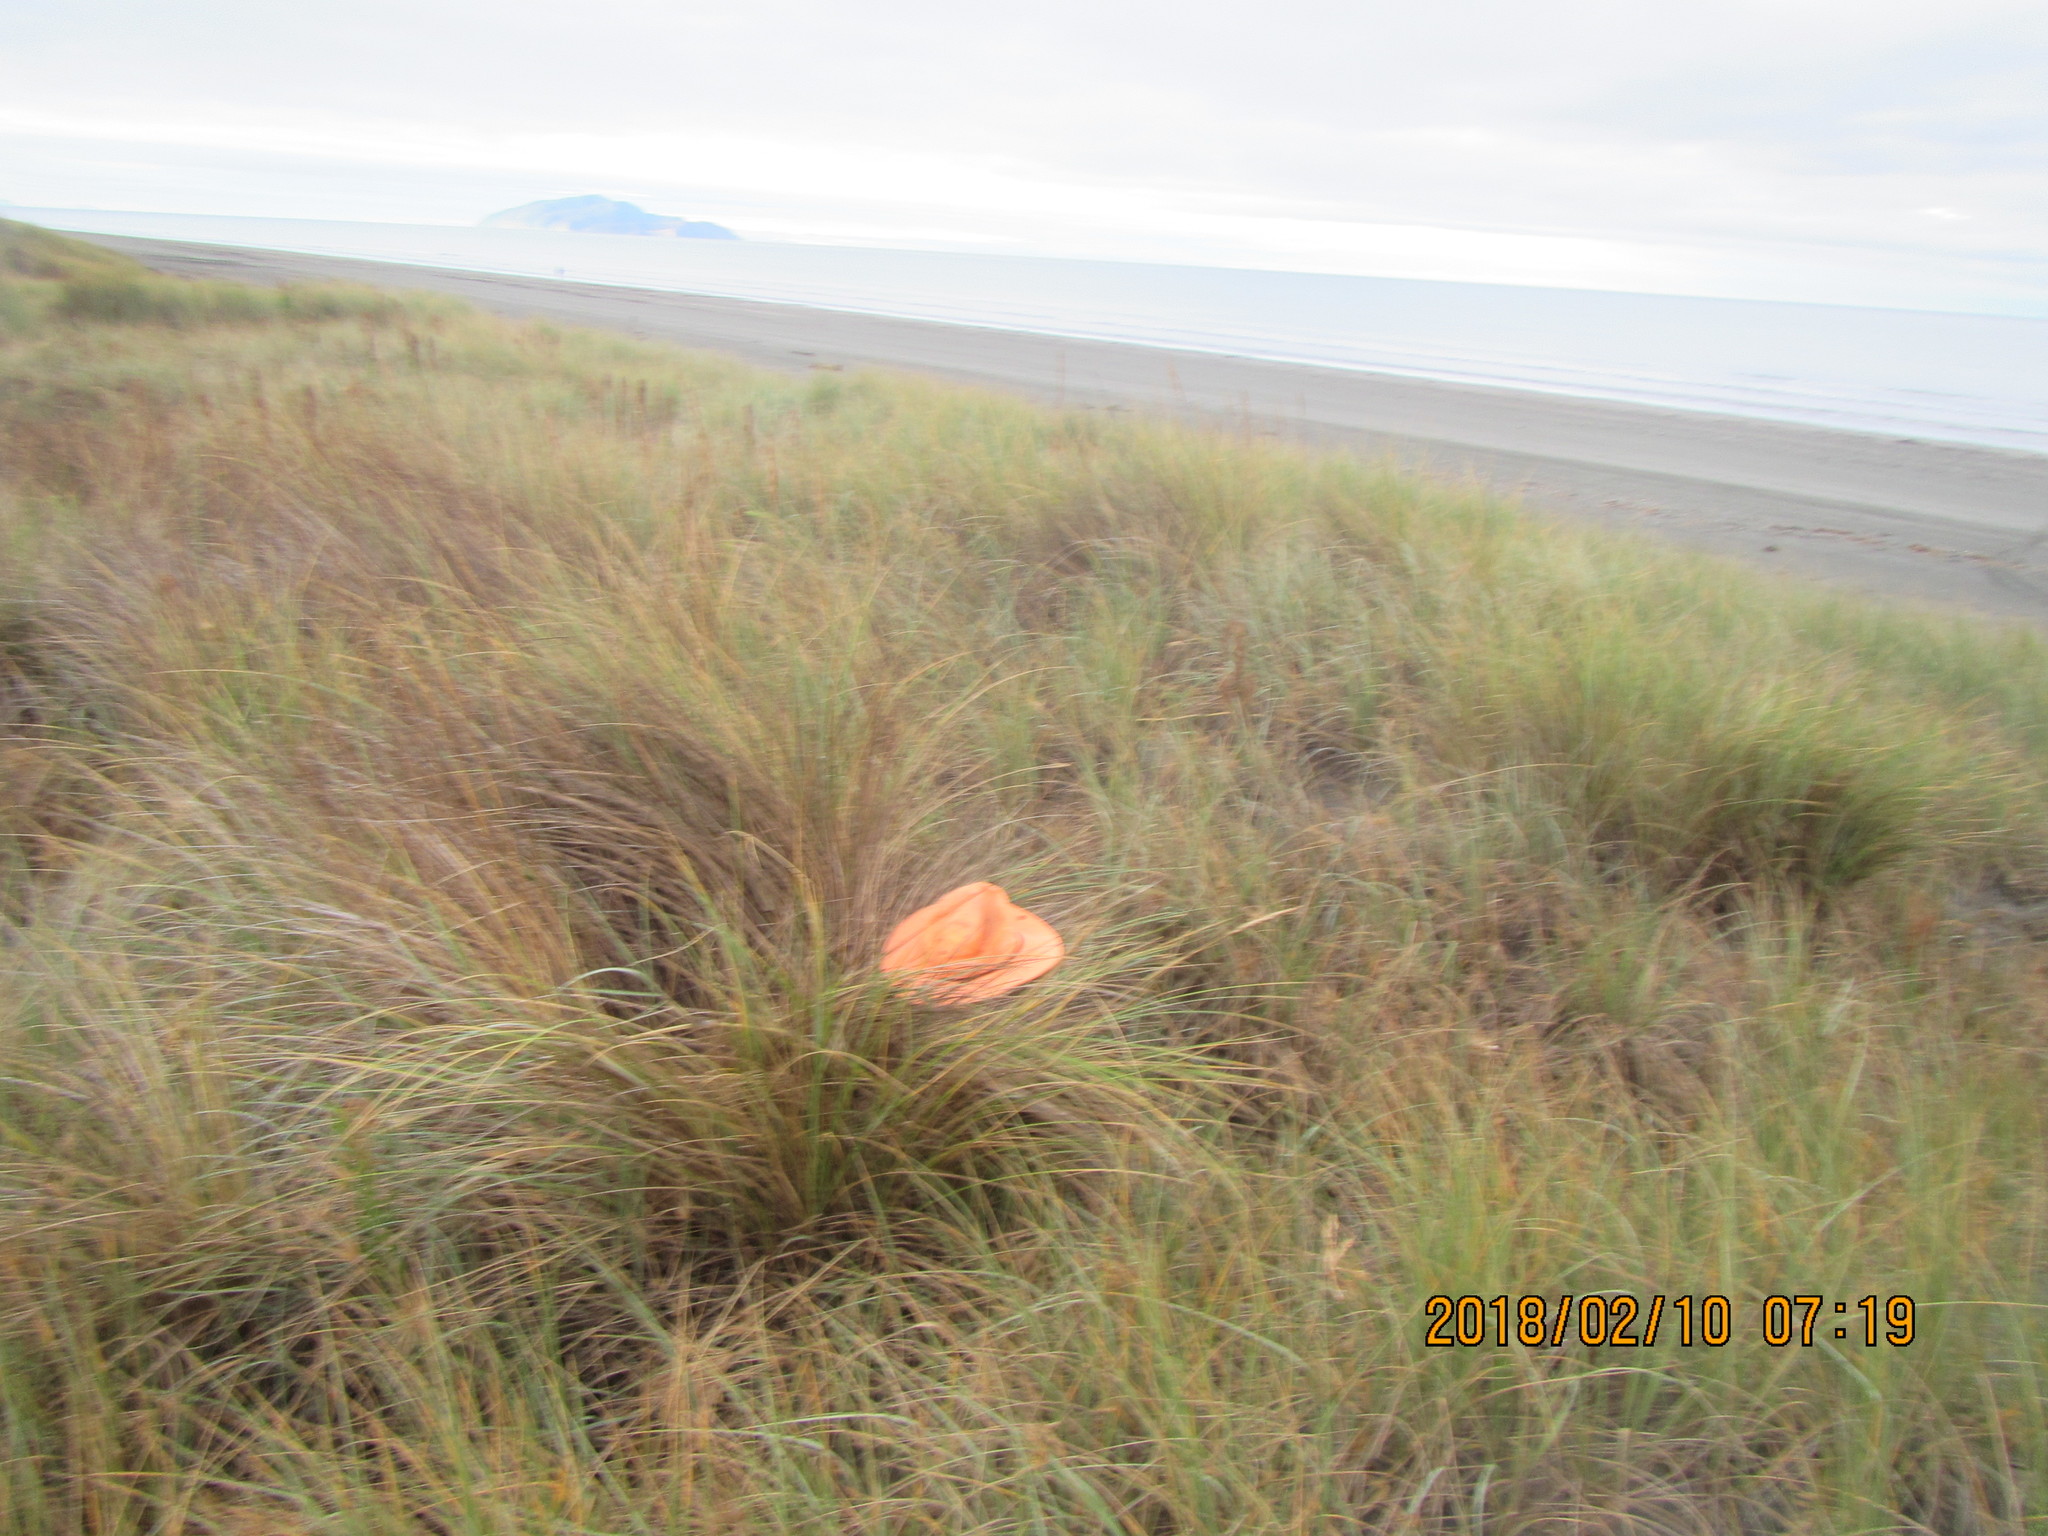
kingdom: Animalia
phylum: Arthropoda
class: Arachnida
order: Araneae
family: Thomisidae
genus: Sidymella
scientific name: Sidymella trapezia
